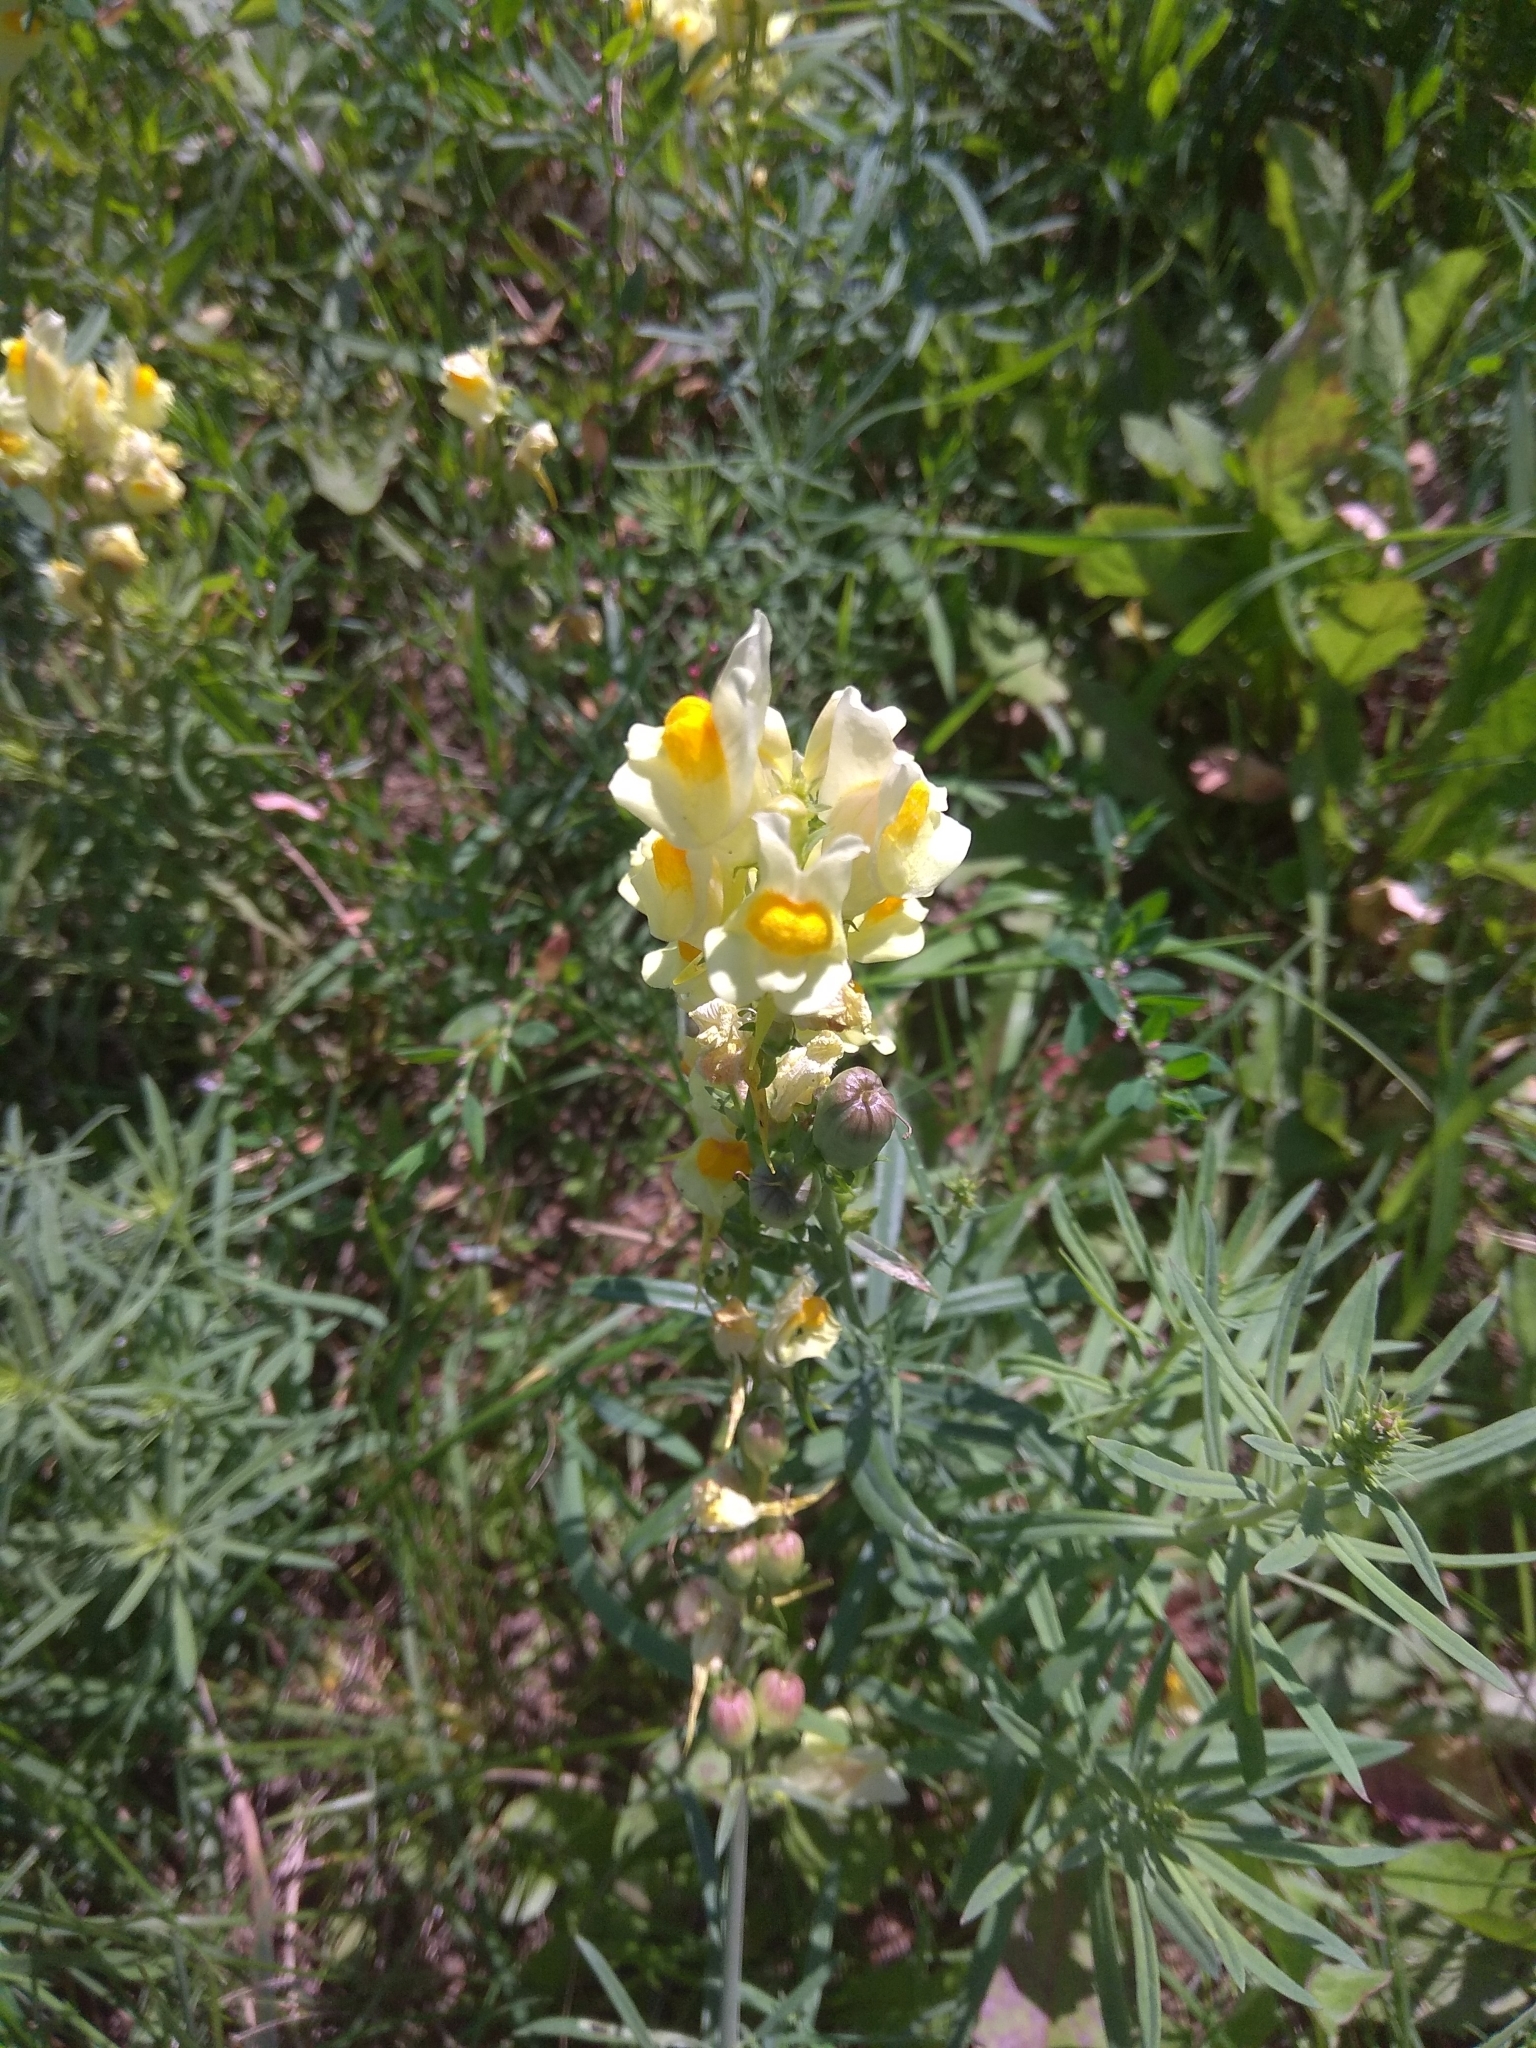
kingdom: Plantae
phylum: Tracheophyta
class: Magnoliopsida
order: Lamiales
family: Plantaginaceae
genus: Linaria
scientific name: Linaria vulgaris
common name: Butter and eggs
